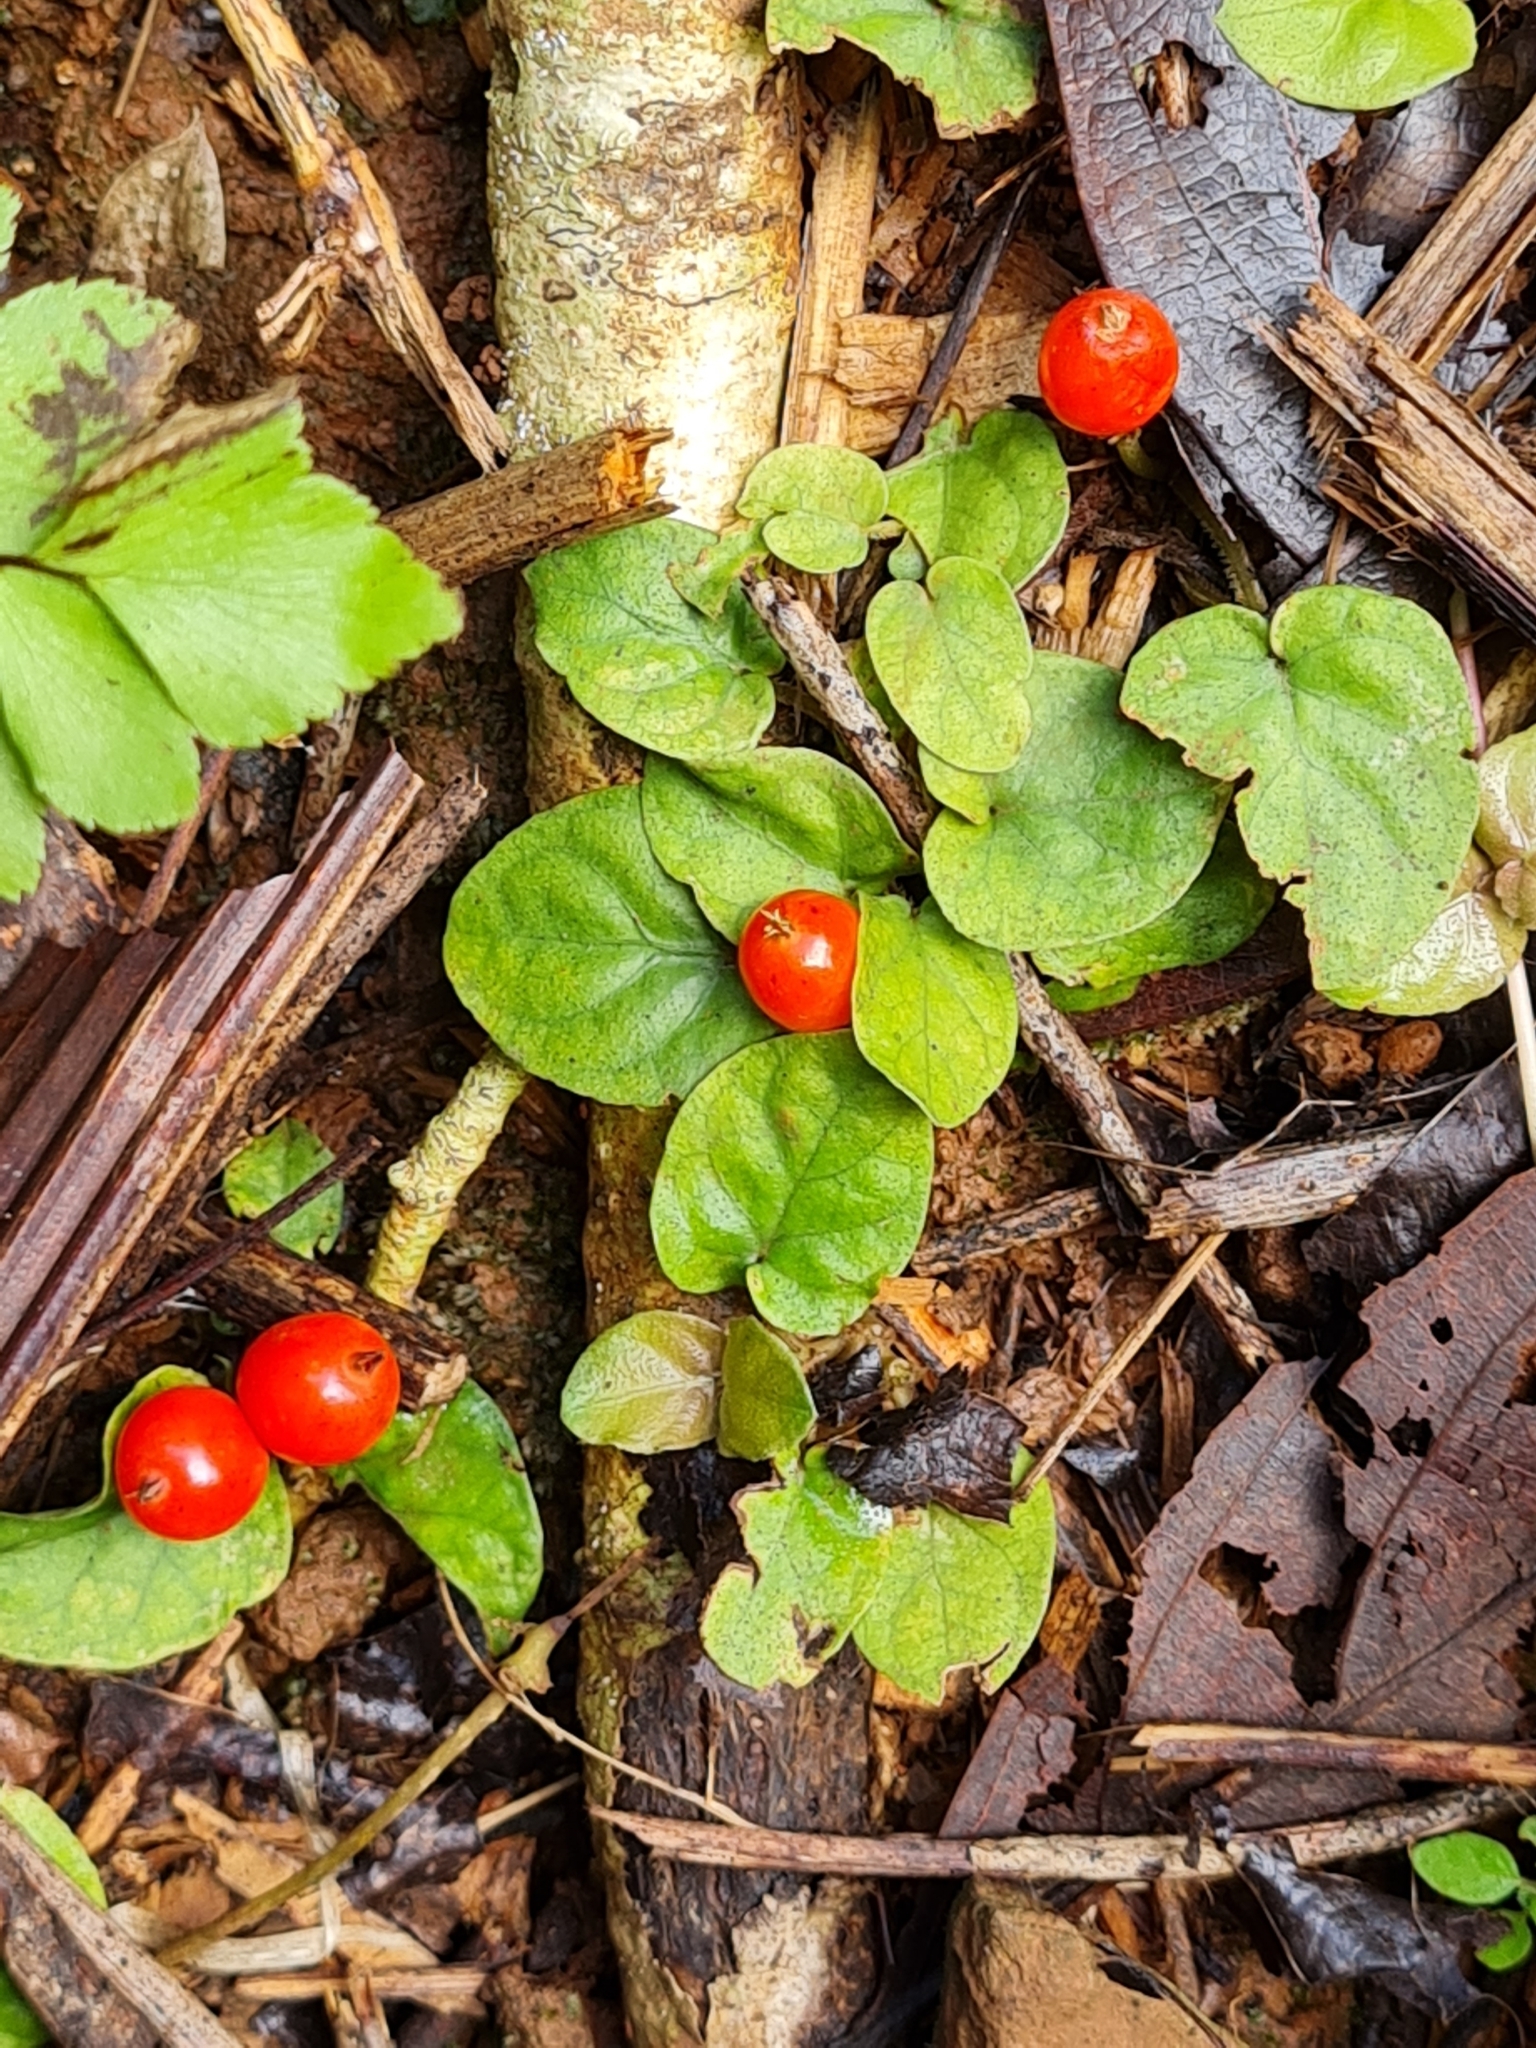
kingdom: Plantae
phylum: Tracheophyta
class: Magnoliopsida
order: Gentianales
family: Rubiaceae
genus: Geophila
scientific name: Geophila repens
